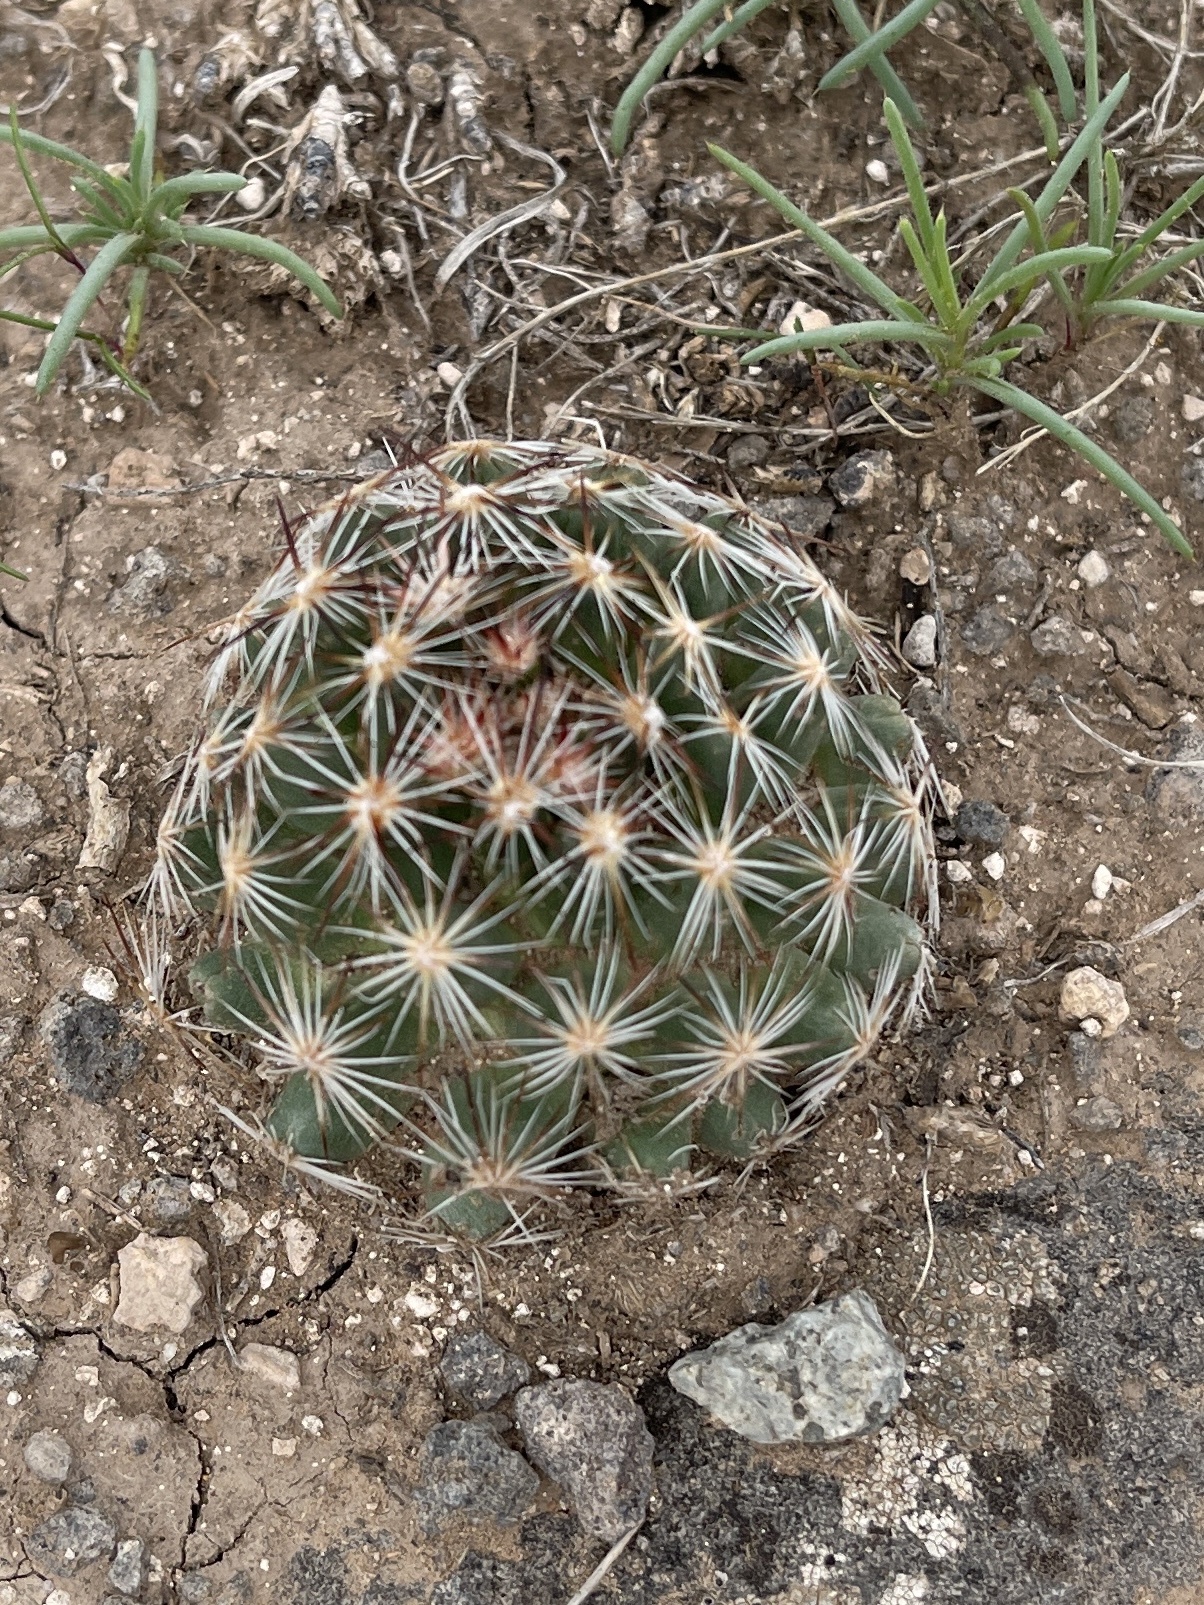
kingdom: Plantae
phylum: Tracheophyta
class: Magnoliopsida
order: Caryophyllales
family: Cactaceae
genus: Pelecyphora
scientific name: Pelecyphora vivipara
